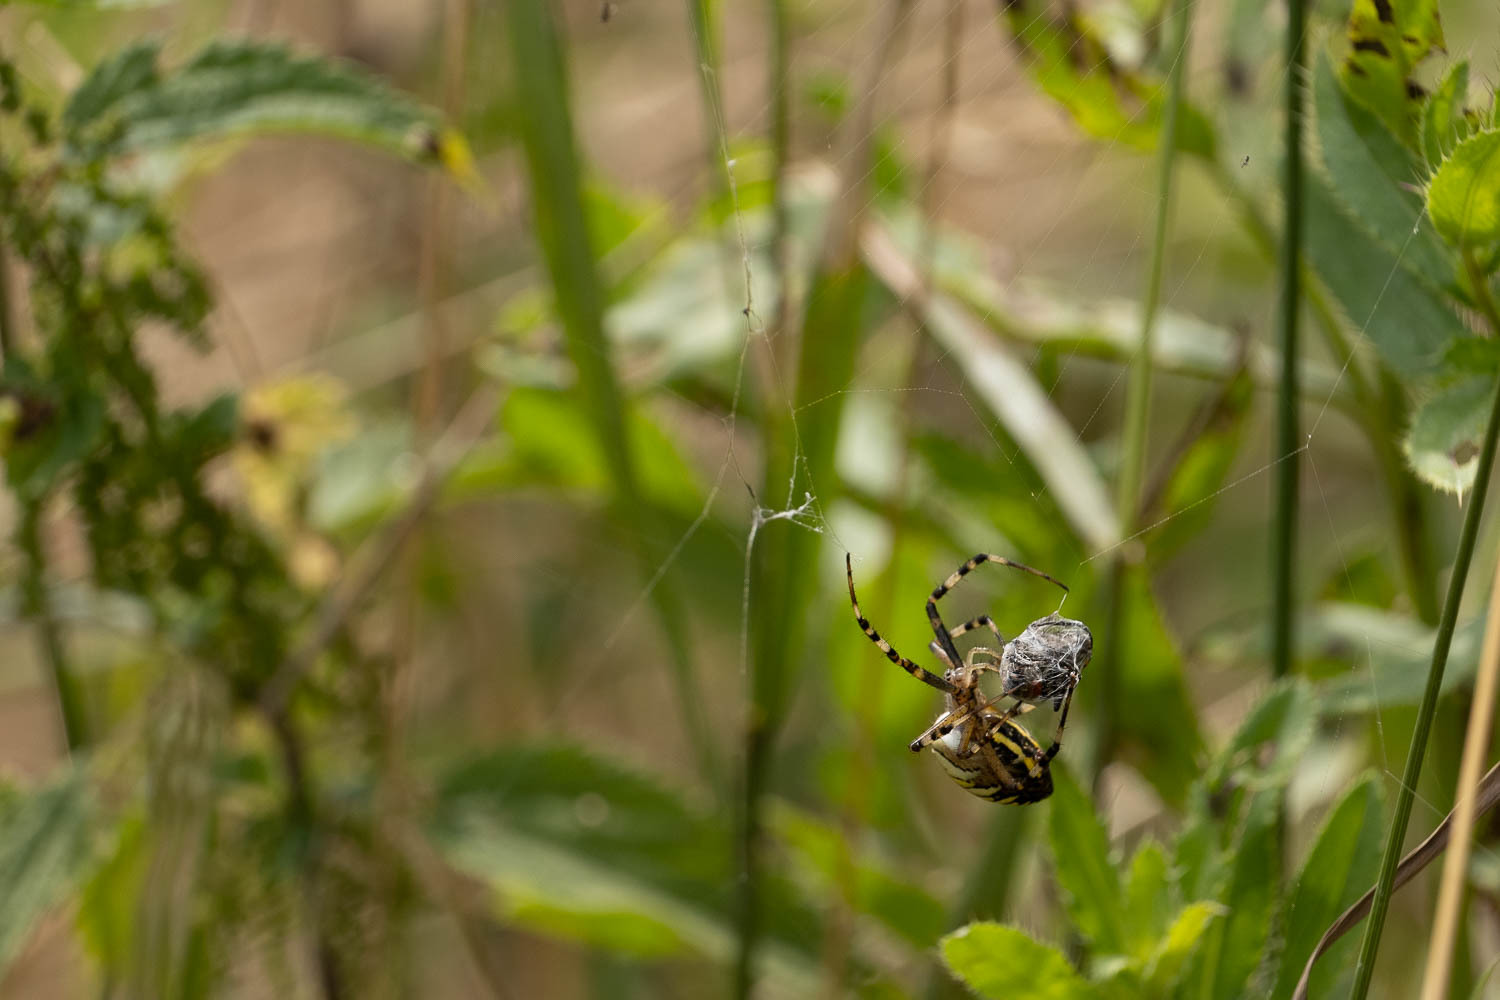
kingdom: Animalia
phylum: Arthropoda
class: Arachnida
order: Araneae
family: Araneidae
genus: Argiope
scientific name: Argiope bruennichi
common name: Wasp spider
